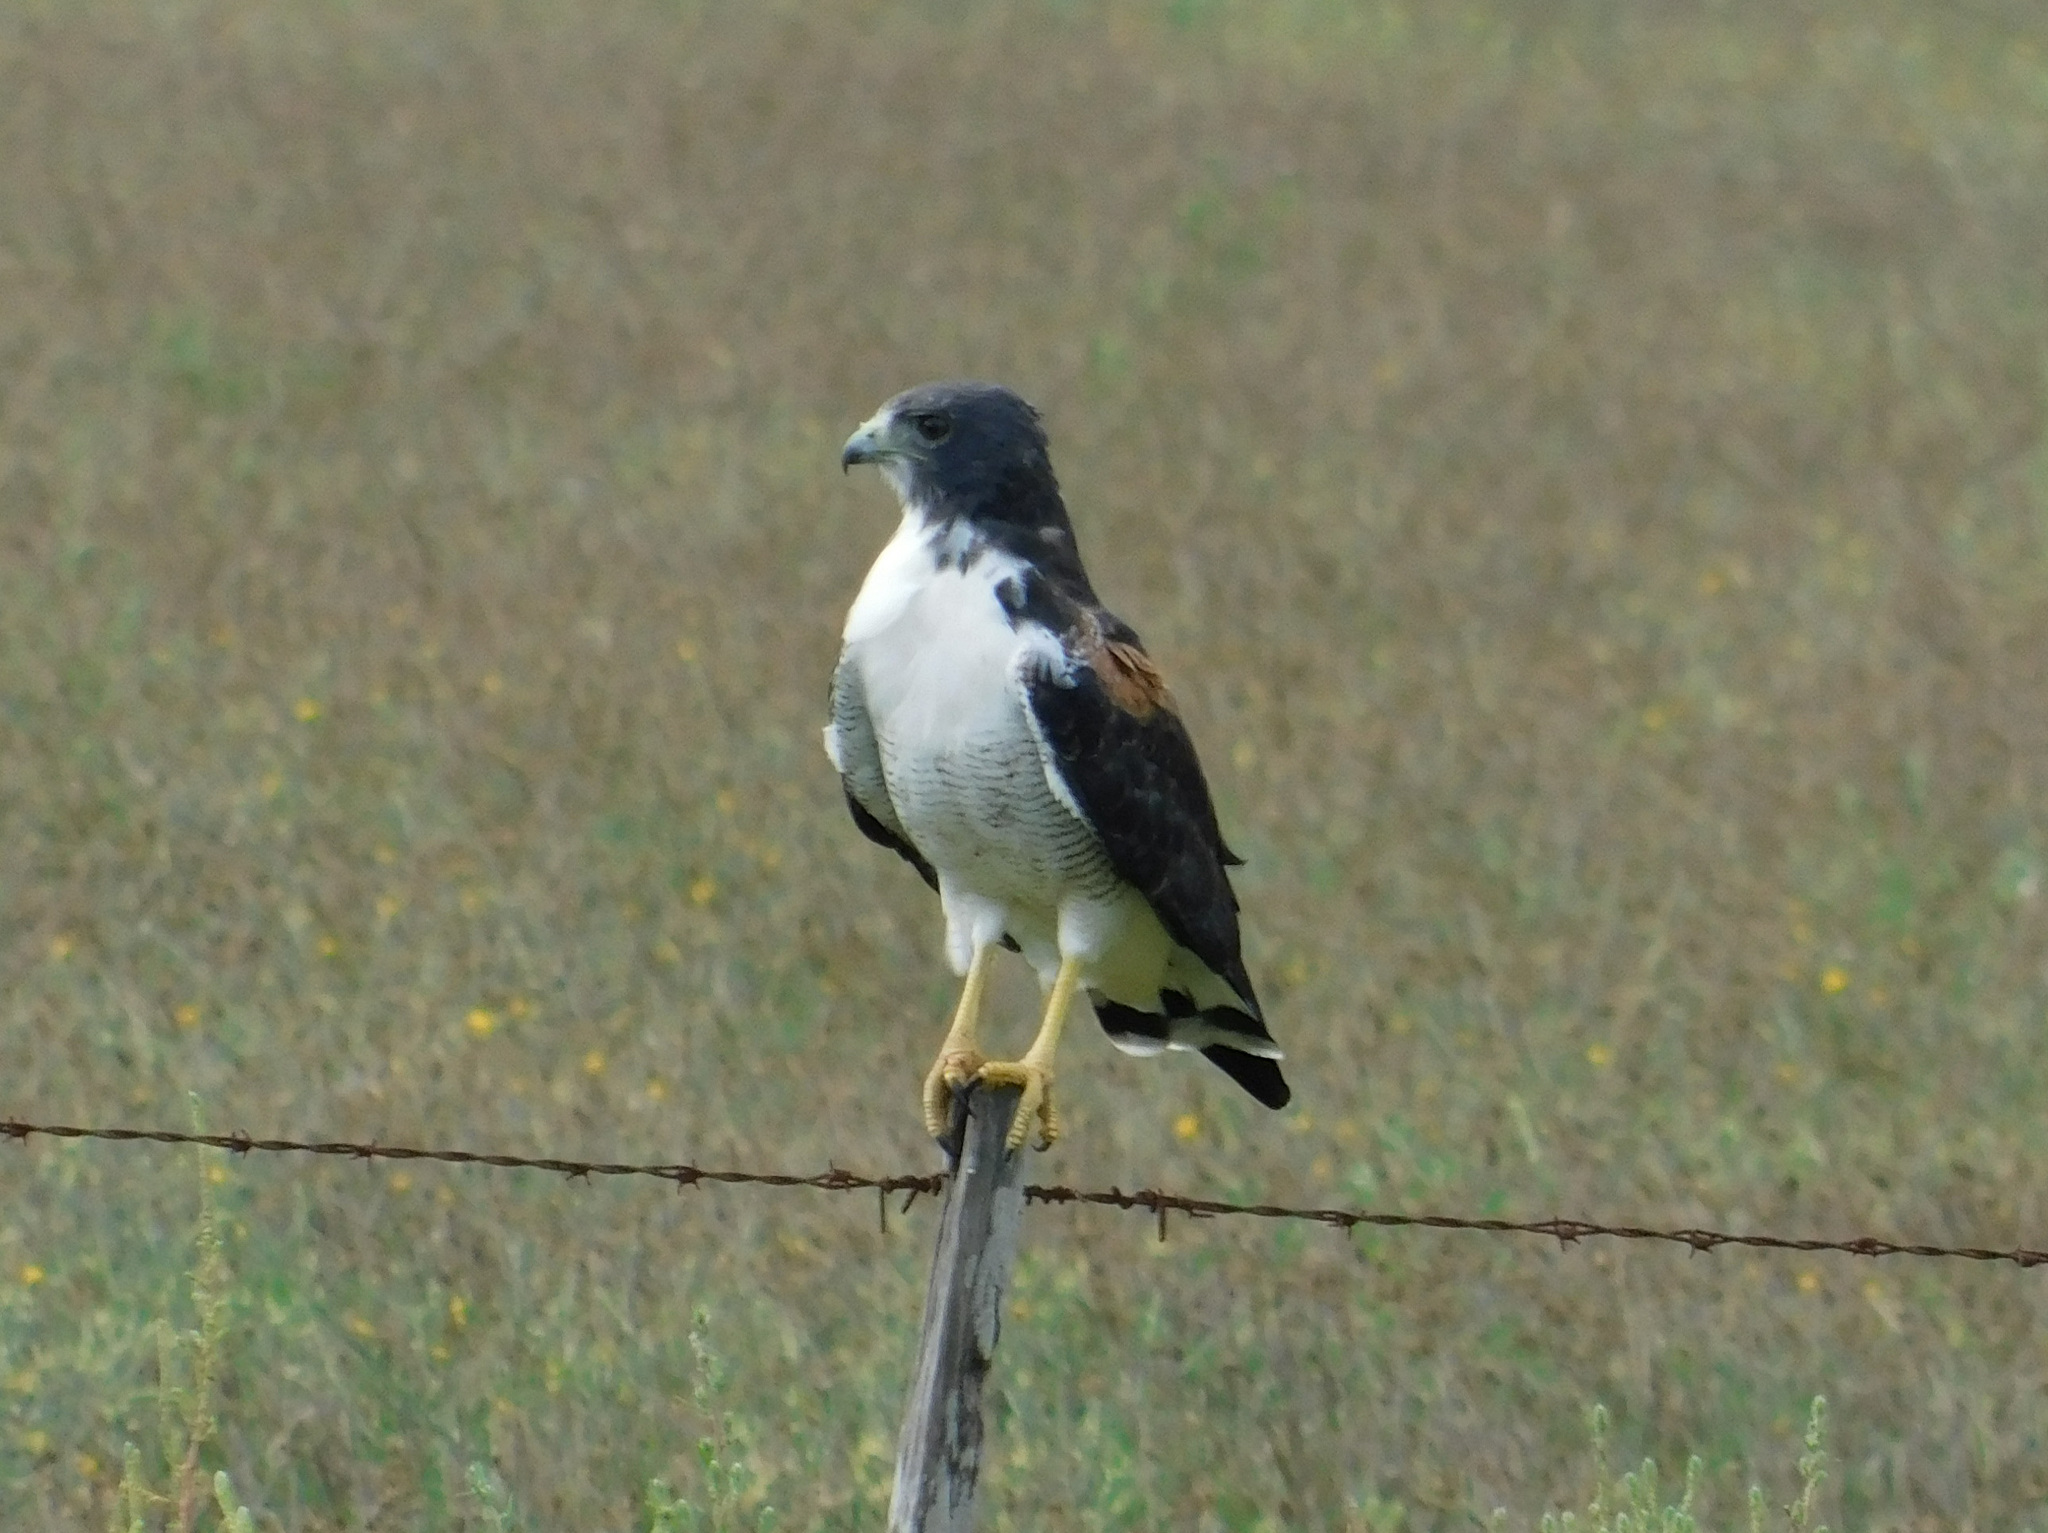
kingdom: Animalia
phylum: Chordata
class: Aves
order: Accipitriformes
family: Accipitridae
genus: Buteo
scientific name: Buteo albicaudatus
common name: White-tailed hawk
